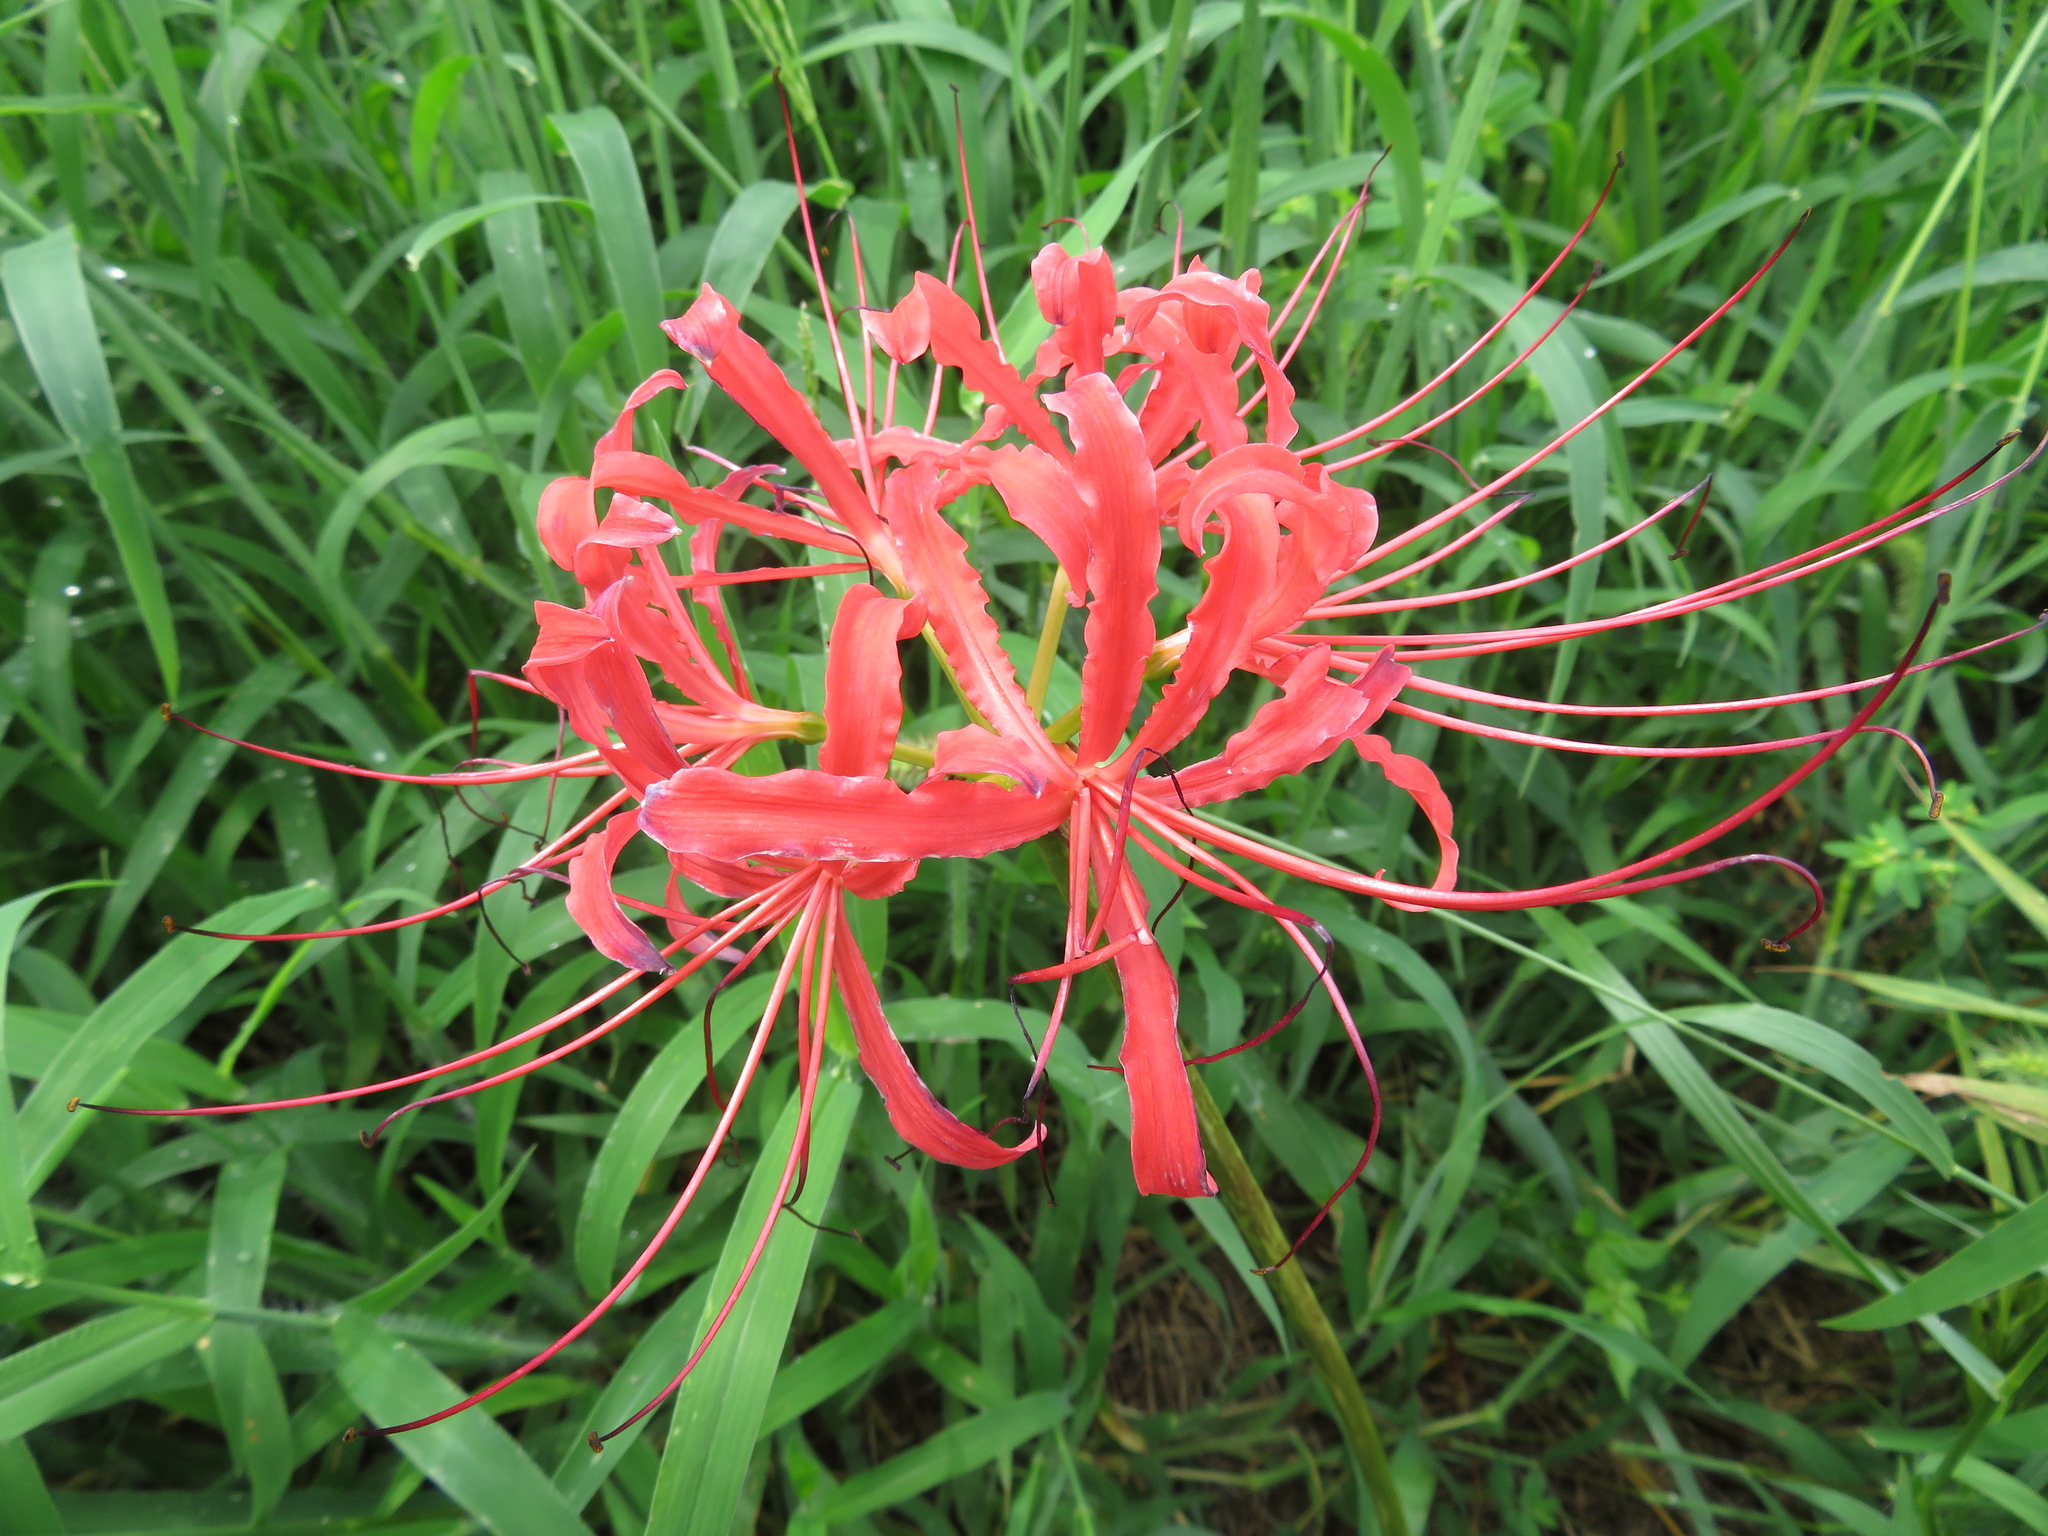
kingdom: Plantae
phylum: Tracheophyta
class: Liliopsida
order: Asparagales
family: Amaryllidaceae
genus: Lycoris
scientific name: Lycoris radiata
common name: Red spider lily
